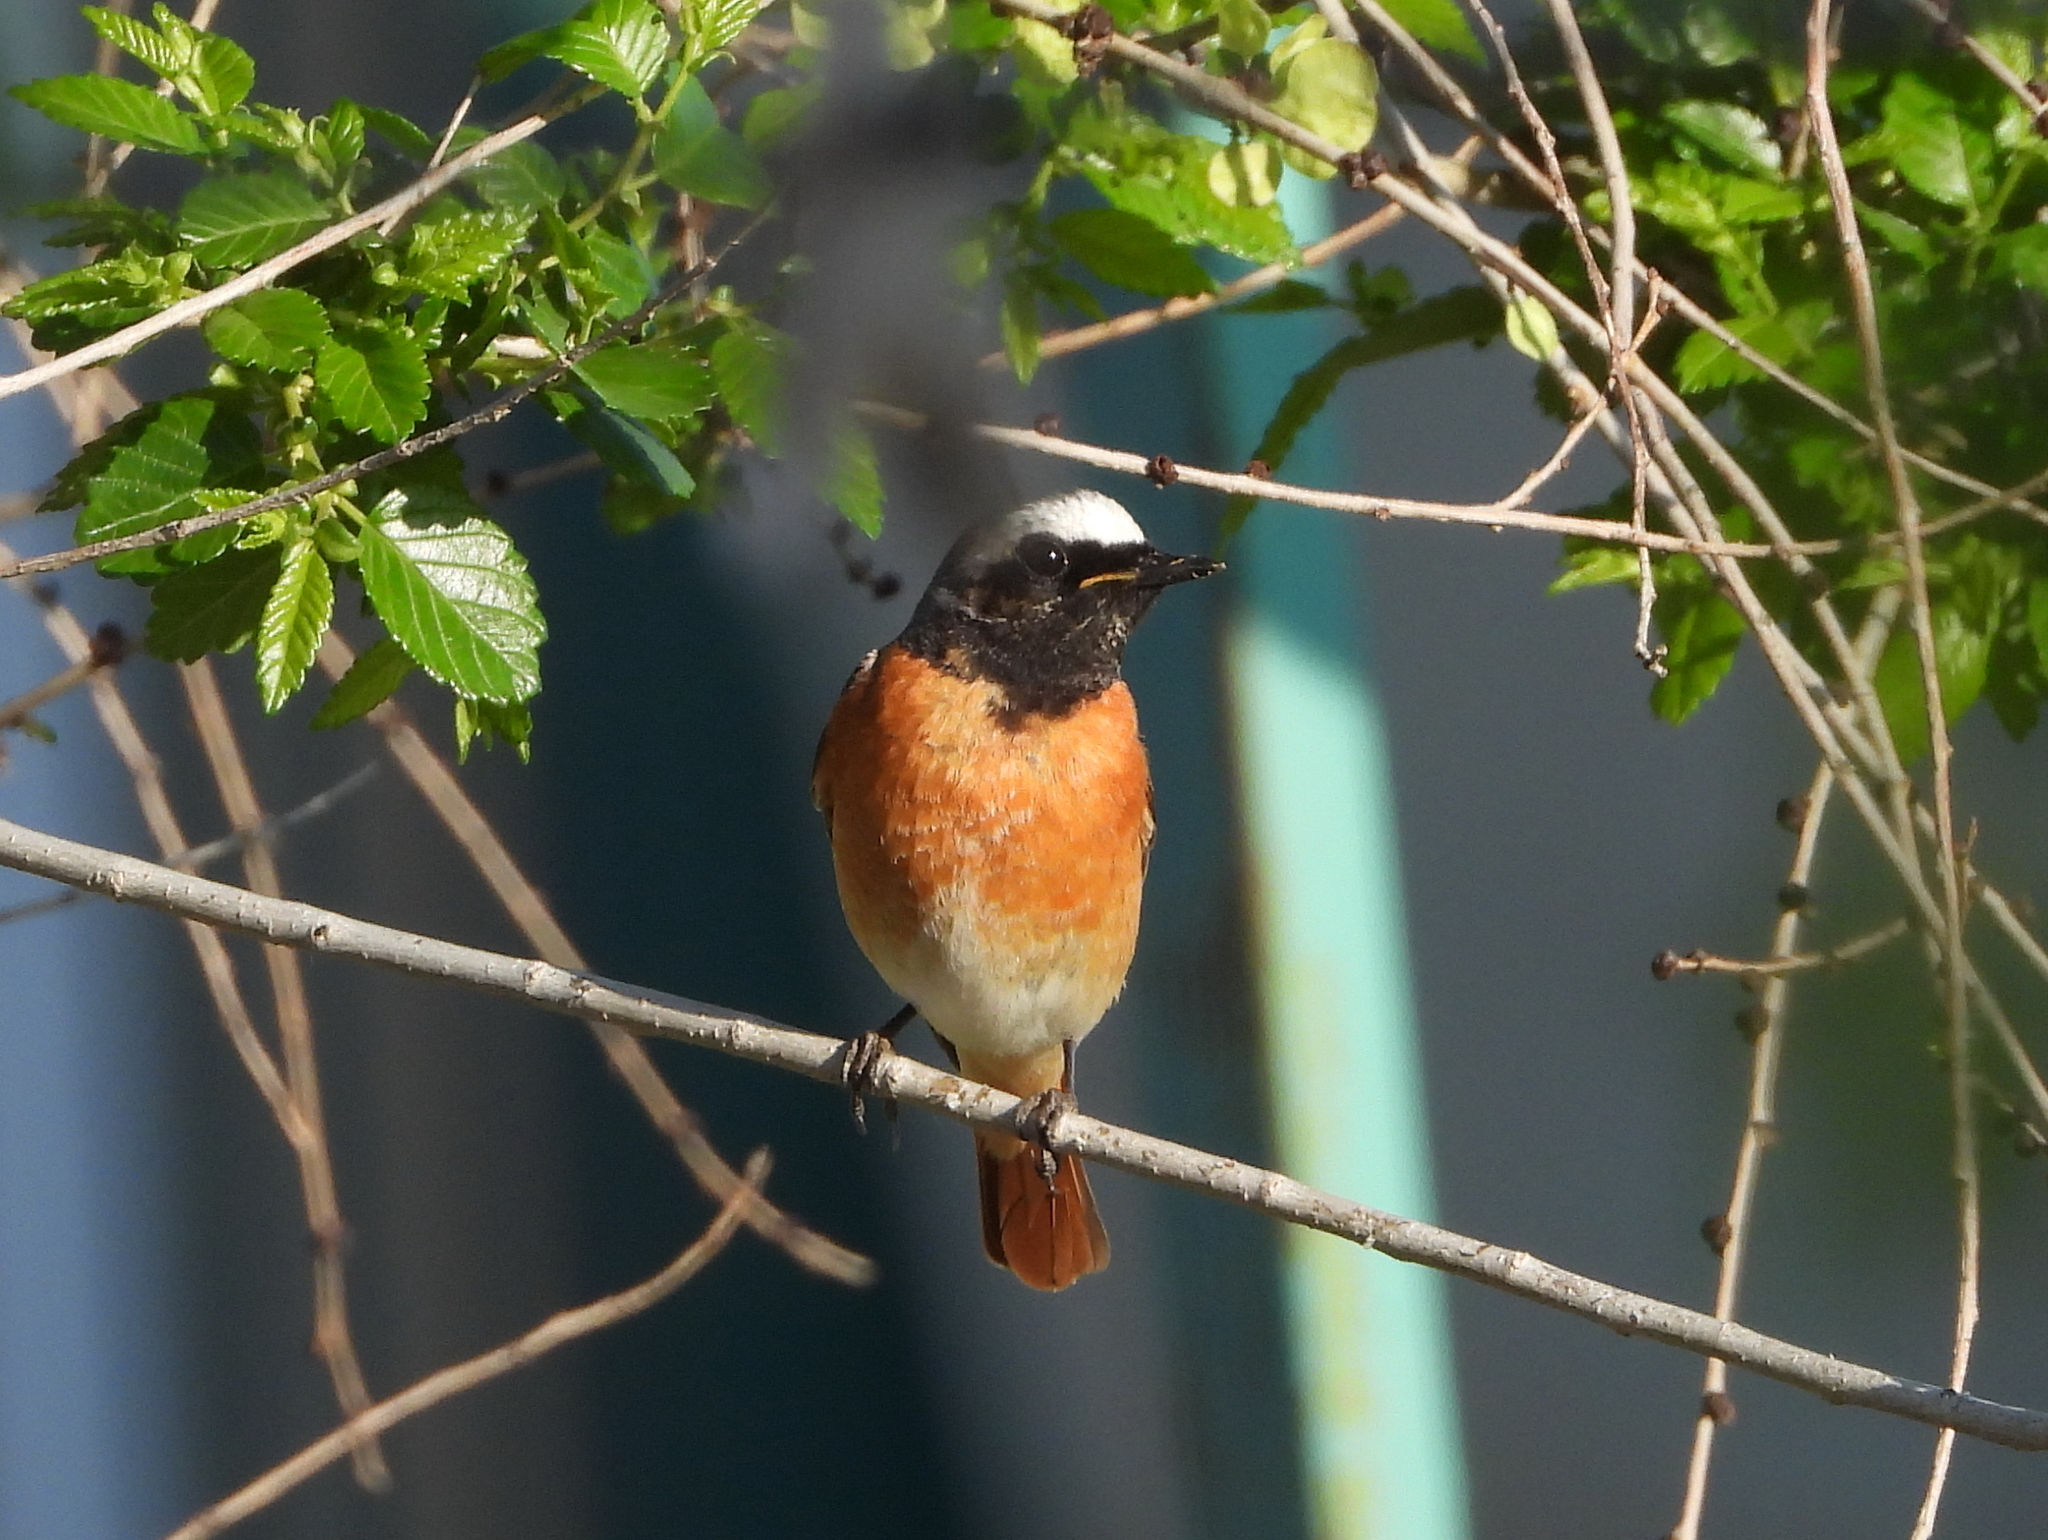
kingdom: Animalia
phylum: Chordata
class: Aves
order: Passeriformes
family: Muscicapidae
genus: Phoenicurus
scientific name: Phoenicurus phoenicurus
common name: Common redstart
